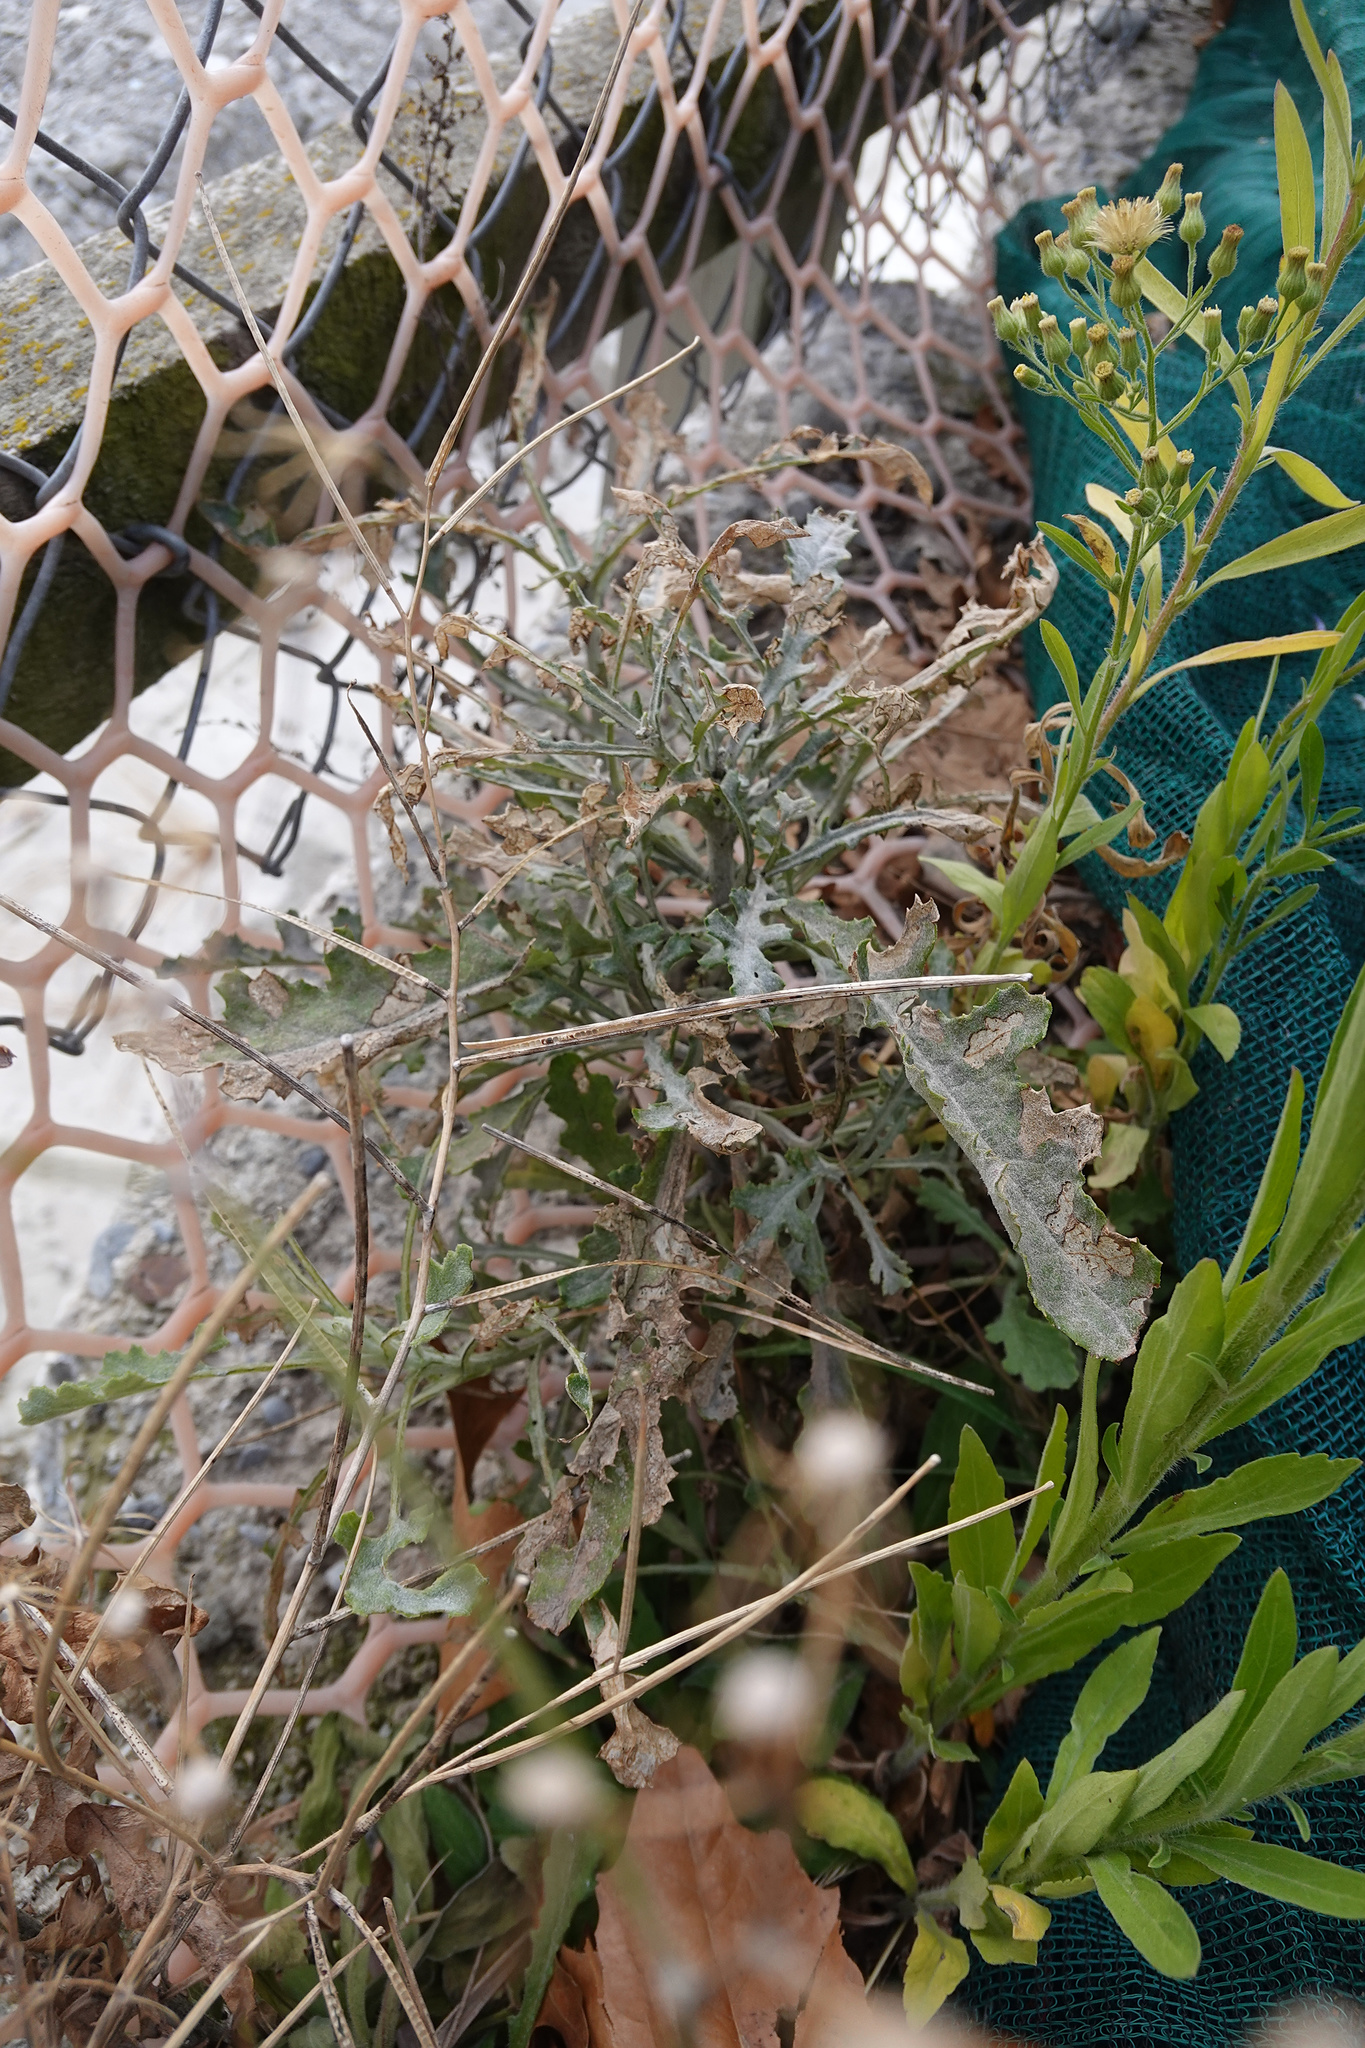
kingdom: Plantae
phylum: Tracheophyta
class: Magnoliopsida
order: Asterales
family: Asteraceae
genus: Senecio
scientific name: Senecio glomeratus
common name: Cutleaf burnweed
